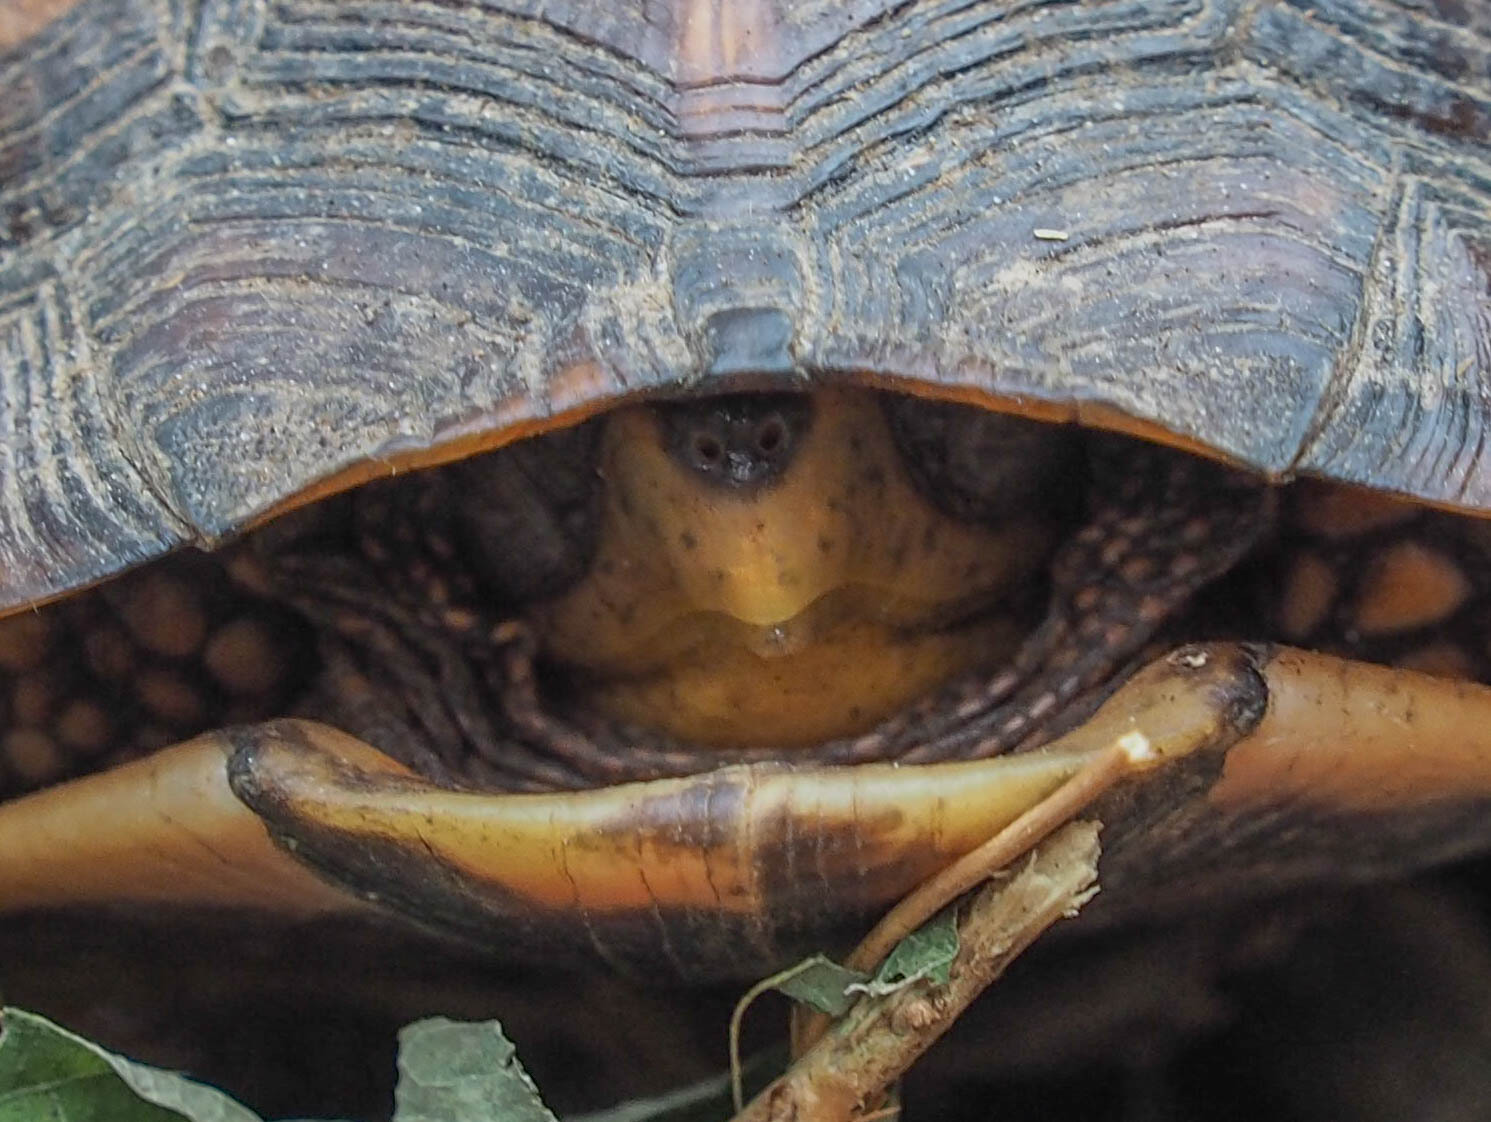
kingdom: Animalia
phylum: Chordata
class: Testudines
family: Emydidae
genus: Terrapene
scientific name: Terrapene carolina
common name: Common box turtle
